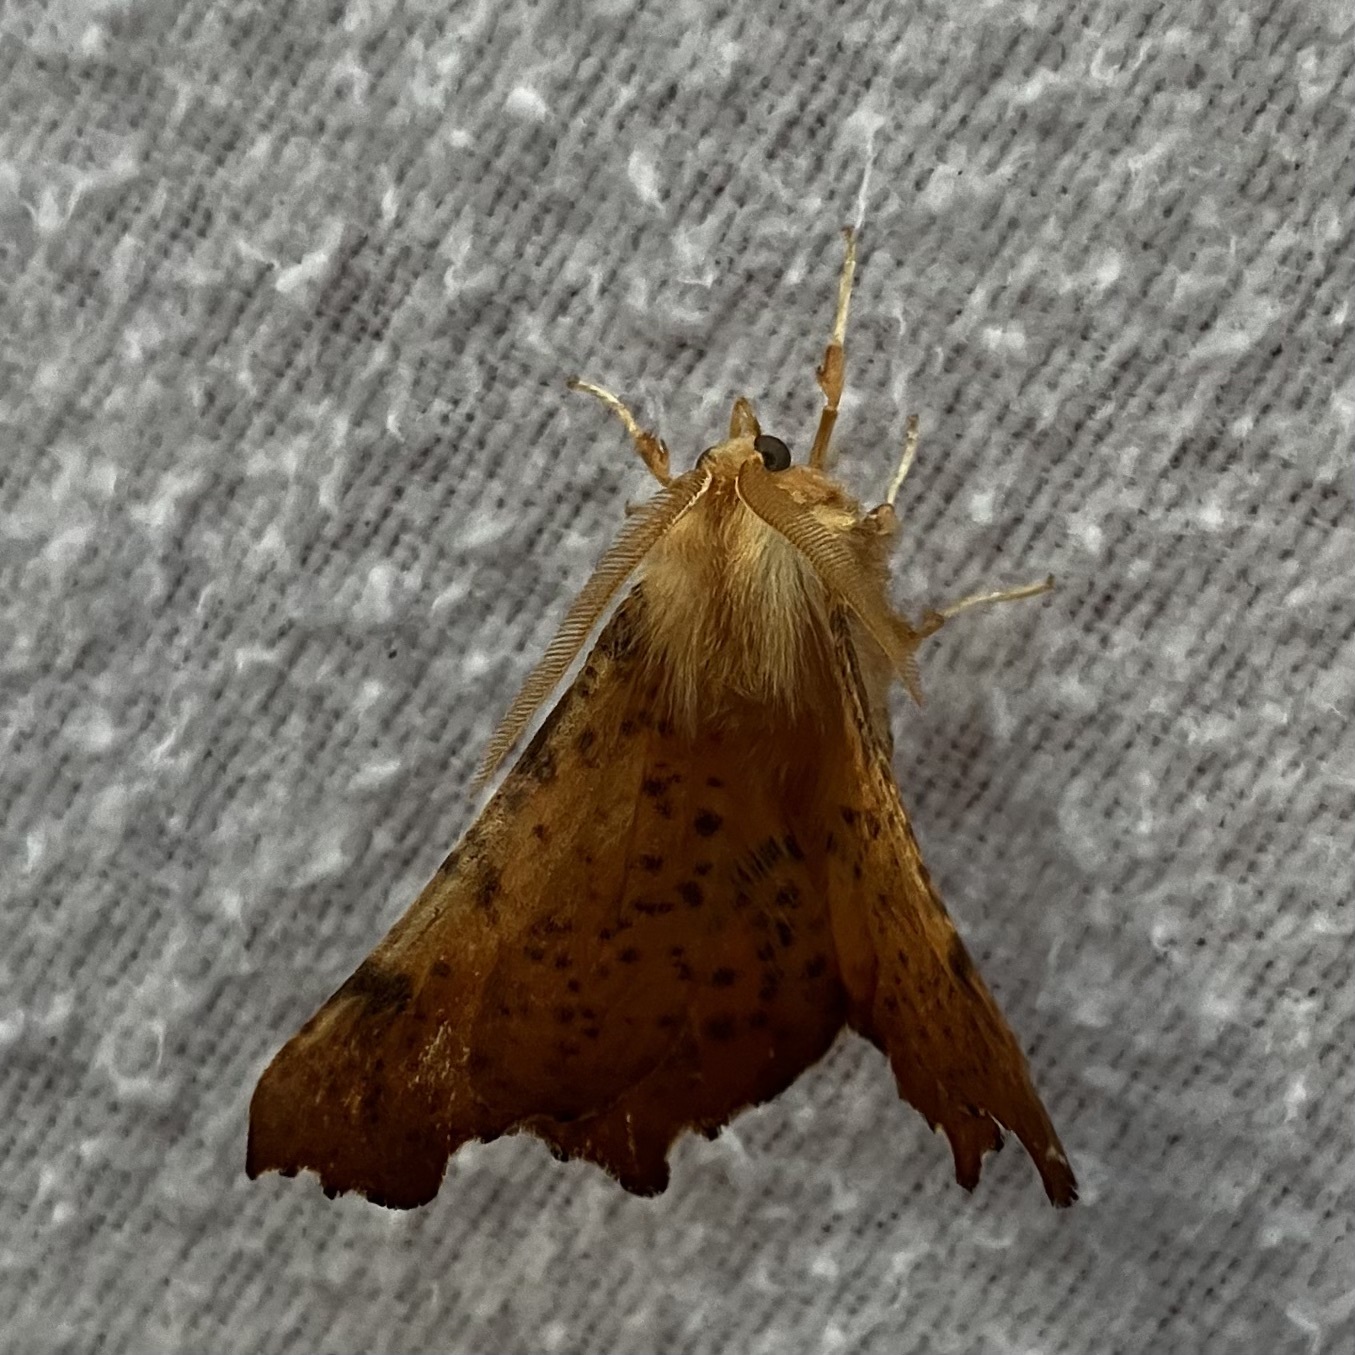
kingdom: Animalia
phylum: Arthropoda
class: Insecta
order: Lepidoptera
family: Geometridae
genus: Ennomos
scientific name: Ennomos magnaria
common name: Maple spanworm
